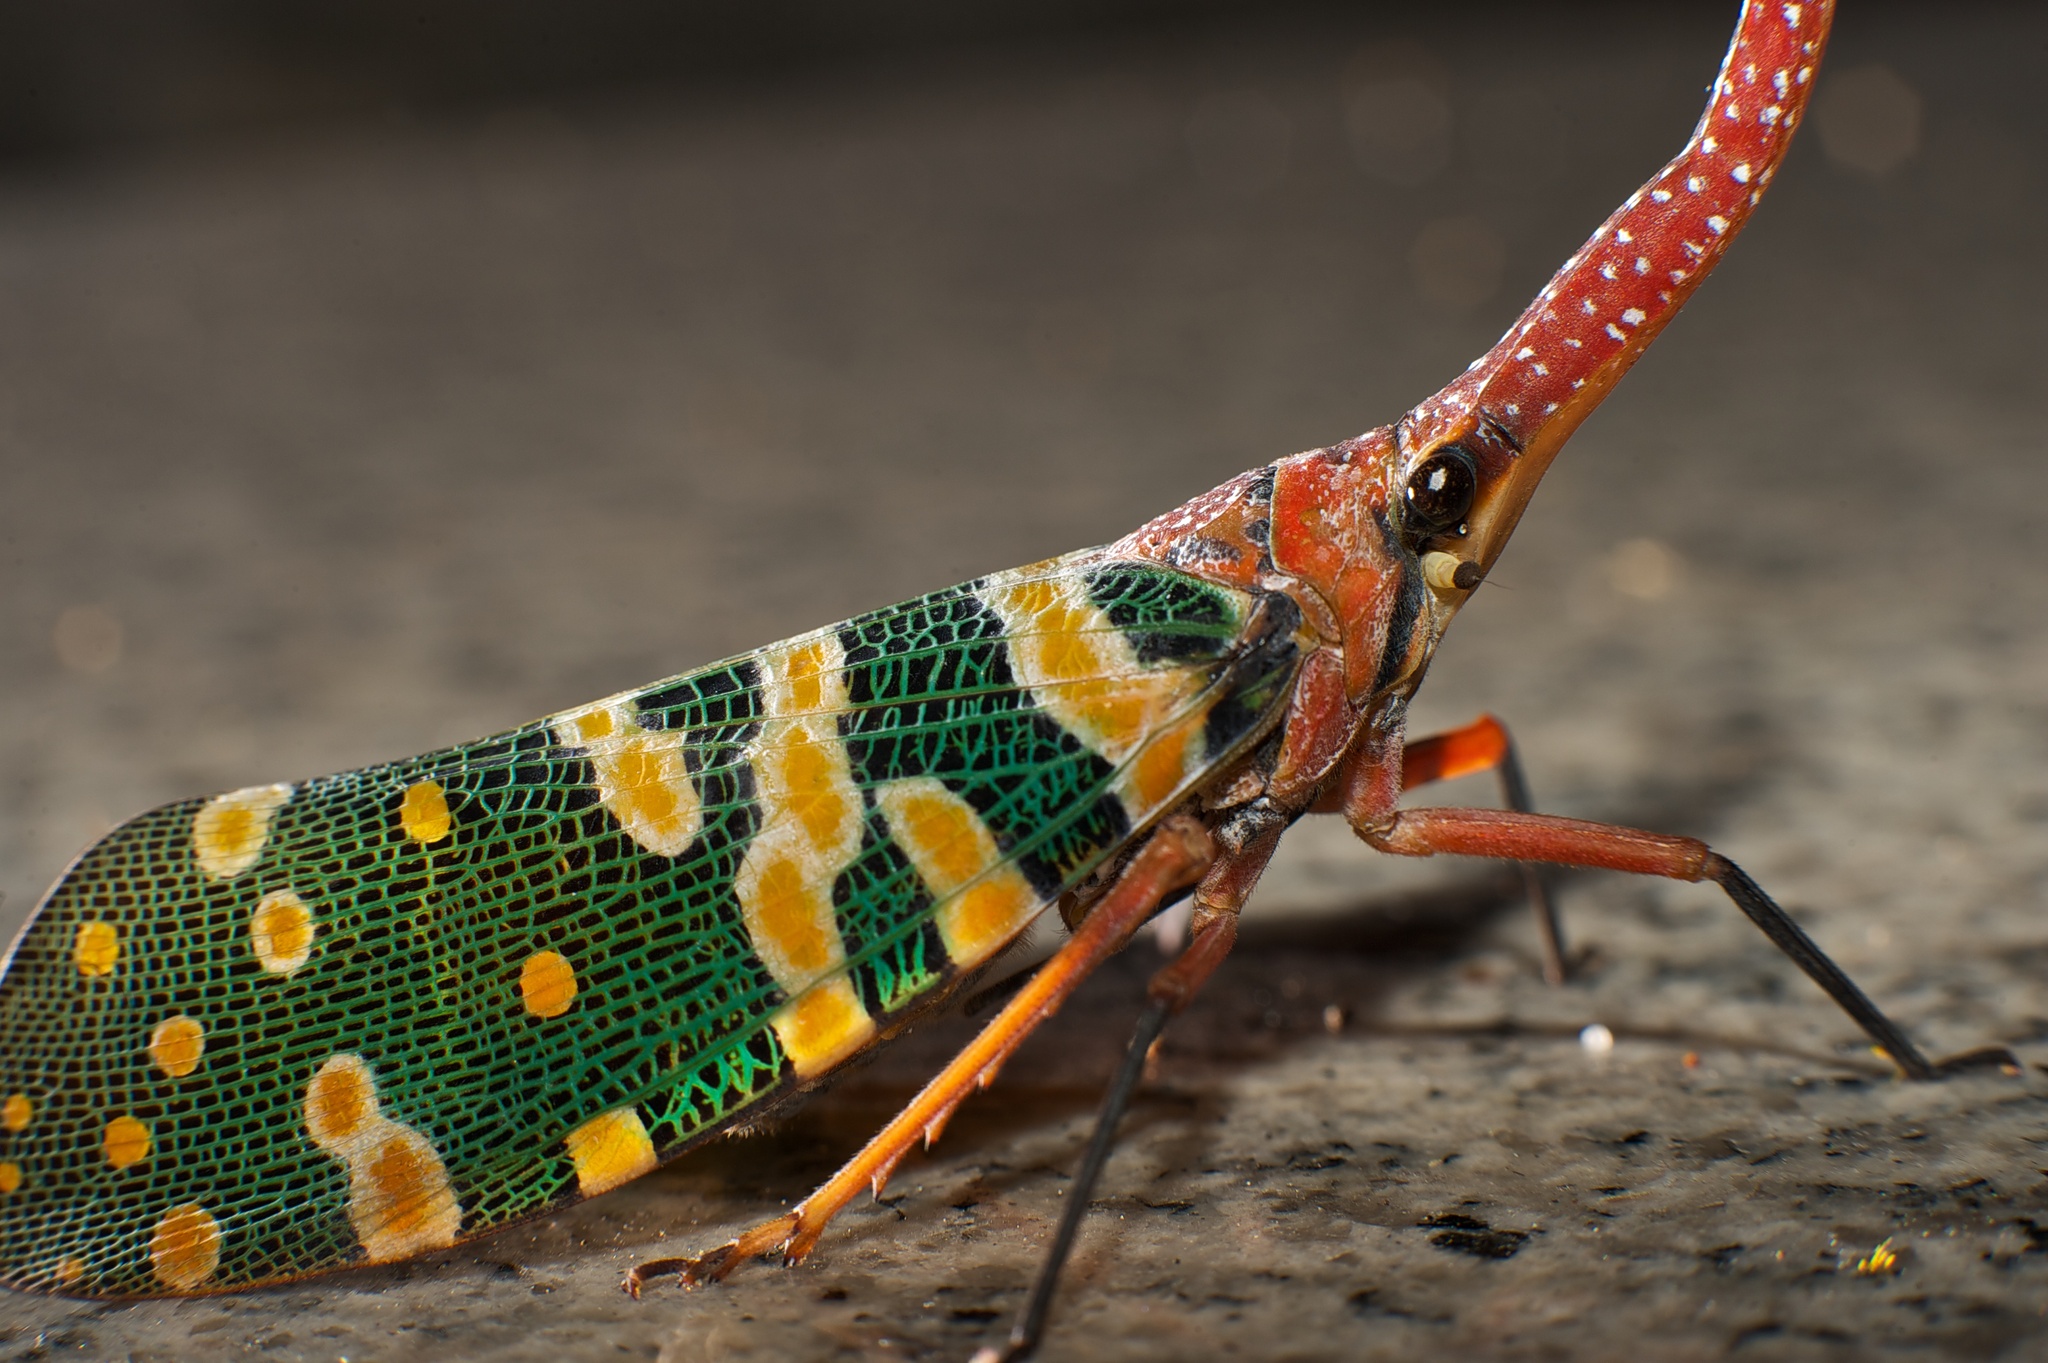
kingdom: Animalia
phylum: Arthropoda
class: Insecta
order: Hemiptera
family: Fulgoridae
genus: Pyrops
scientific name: Pyrops candelaria
